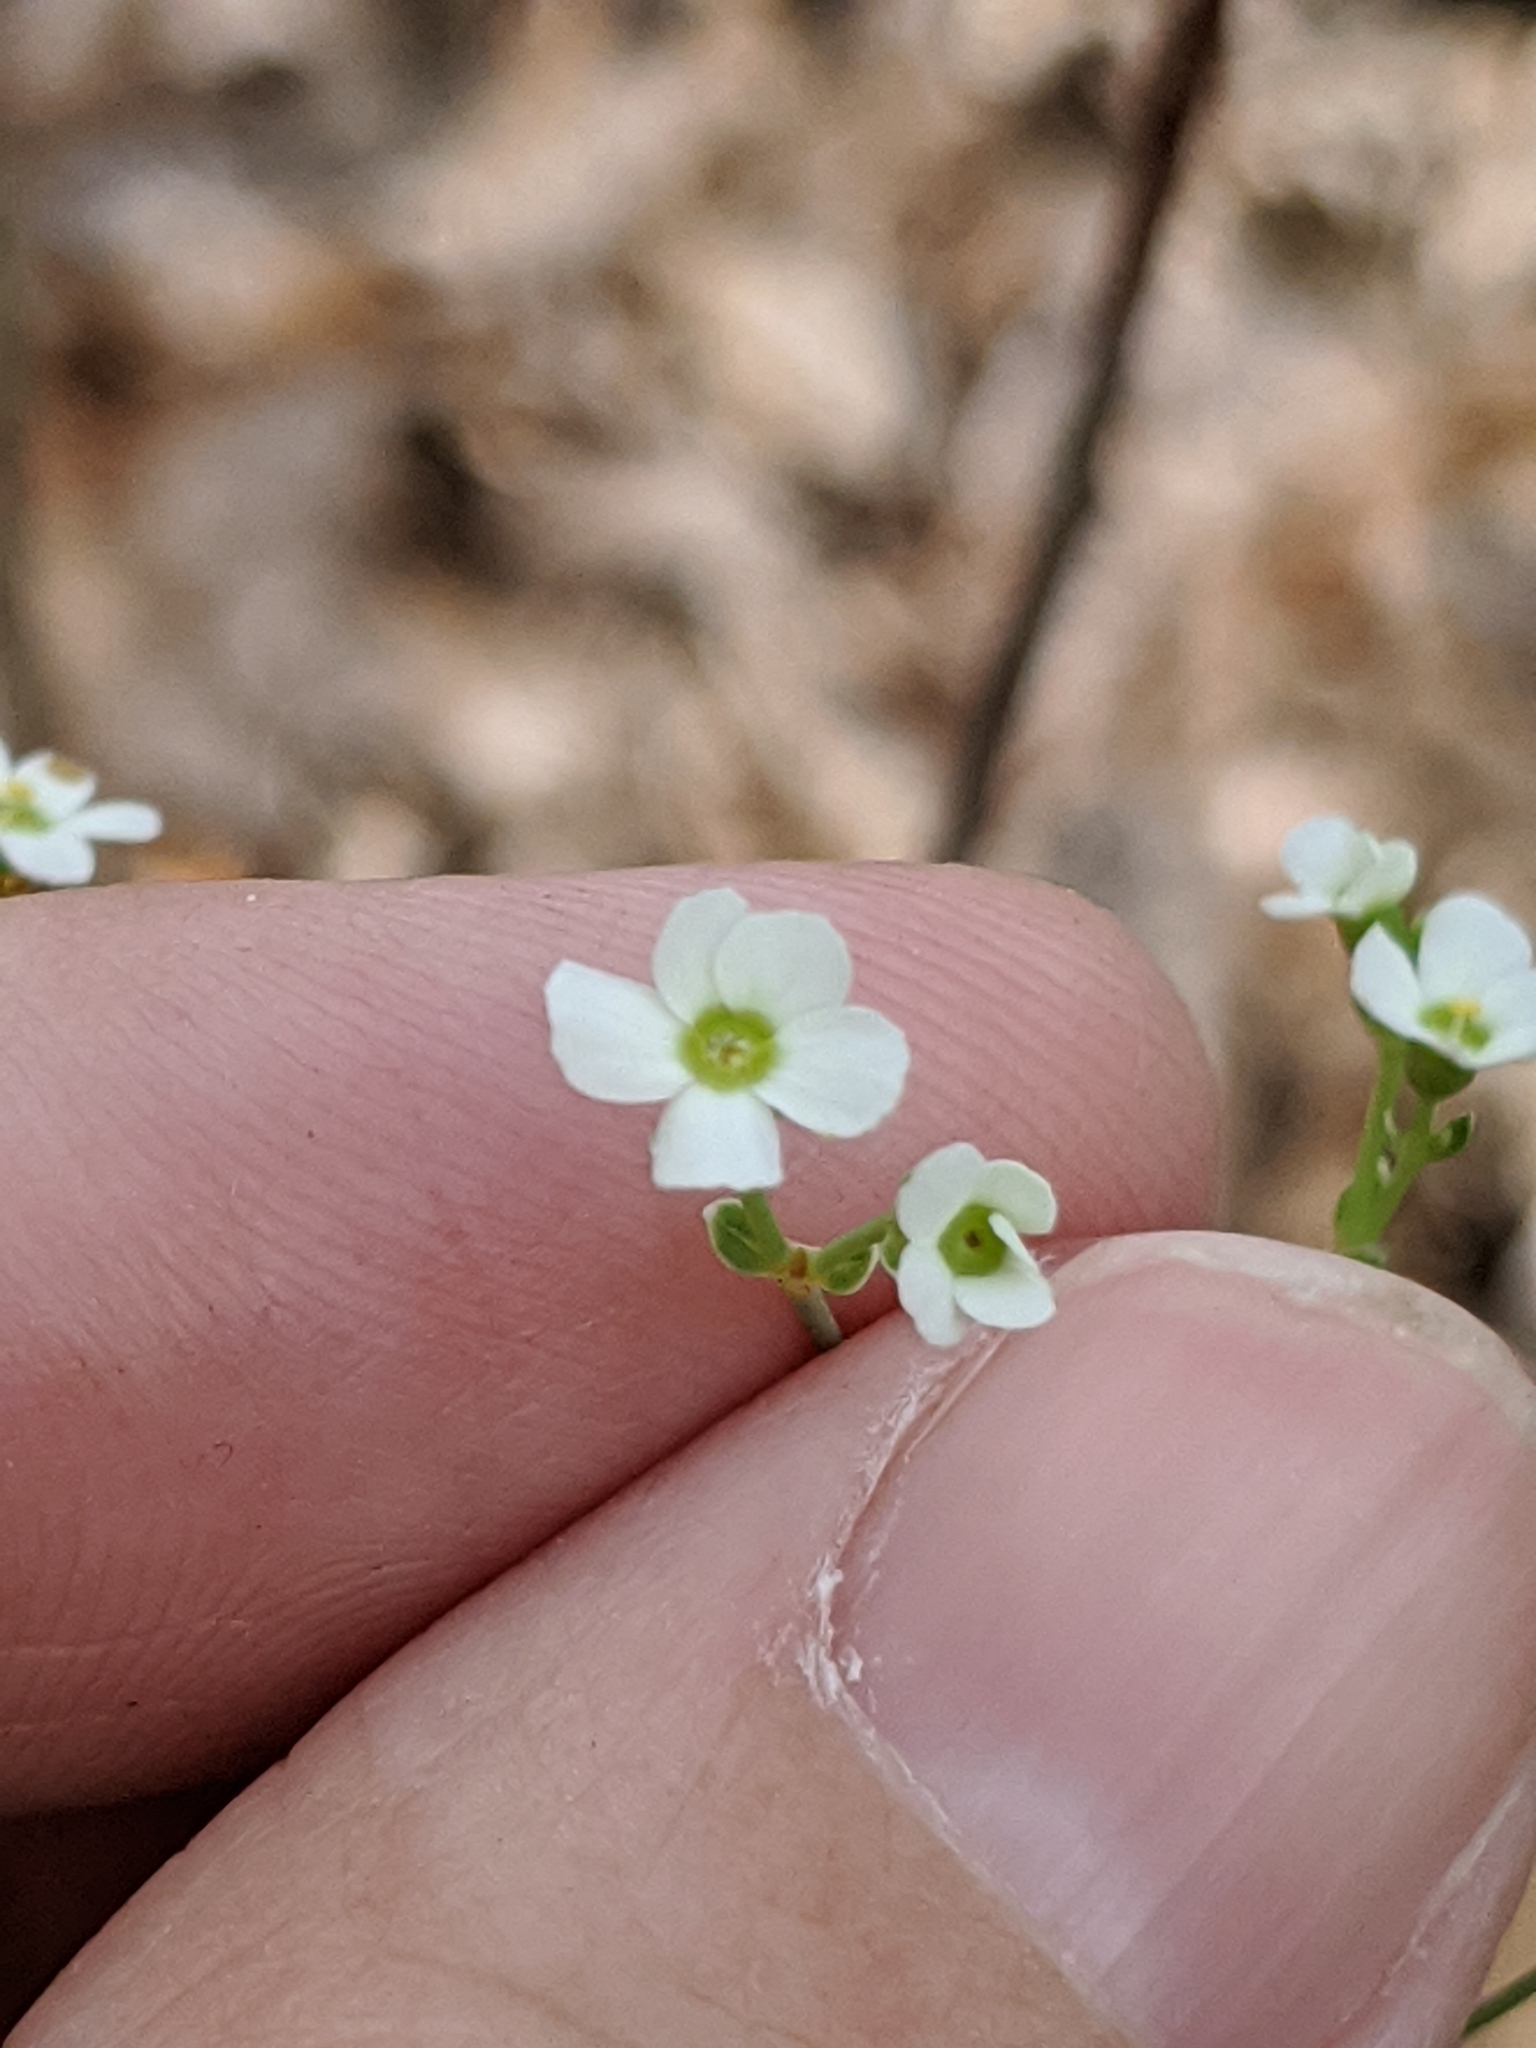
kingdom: Plantae
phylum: Tracheophyta
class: Magnoliopsida
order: Malpighiales
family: Euphorbiaceae
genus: Euphorbia
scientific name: Euphorbia corollata
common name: Flowering spurge
